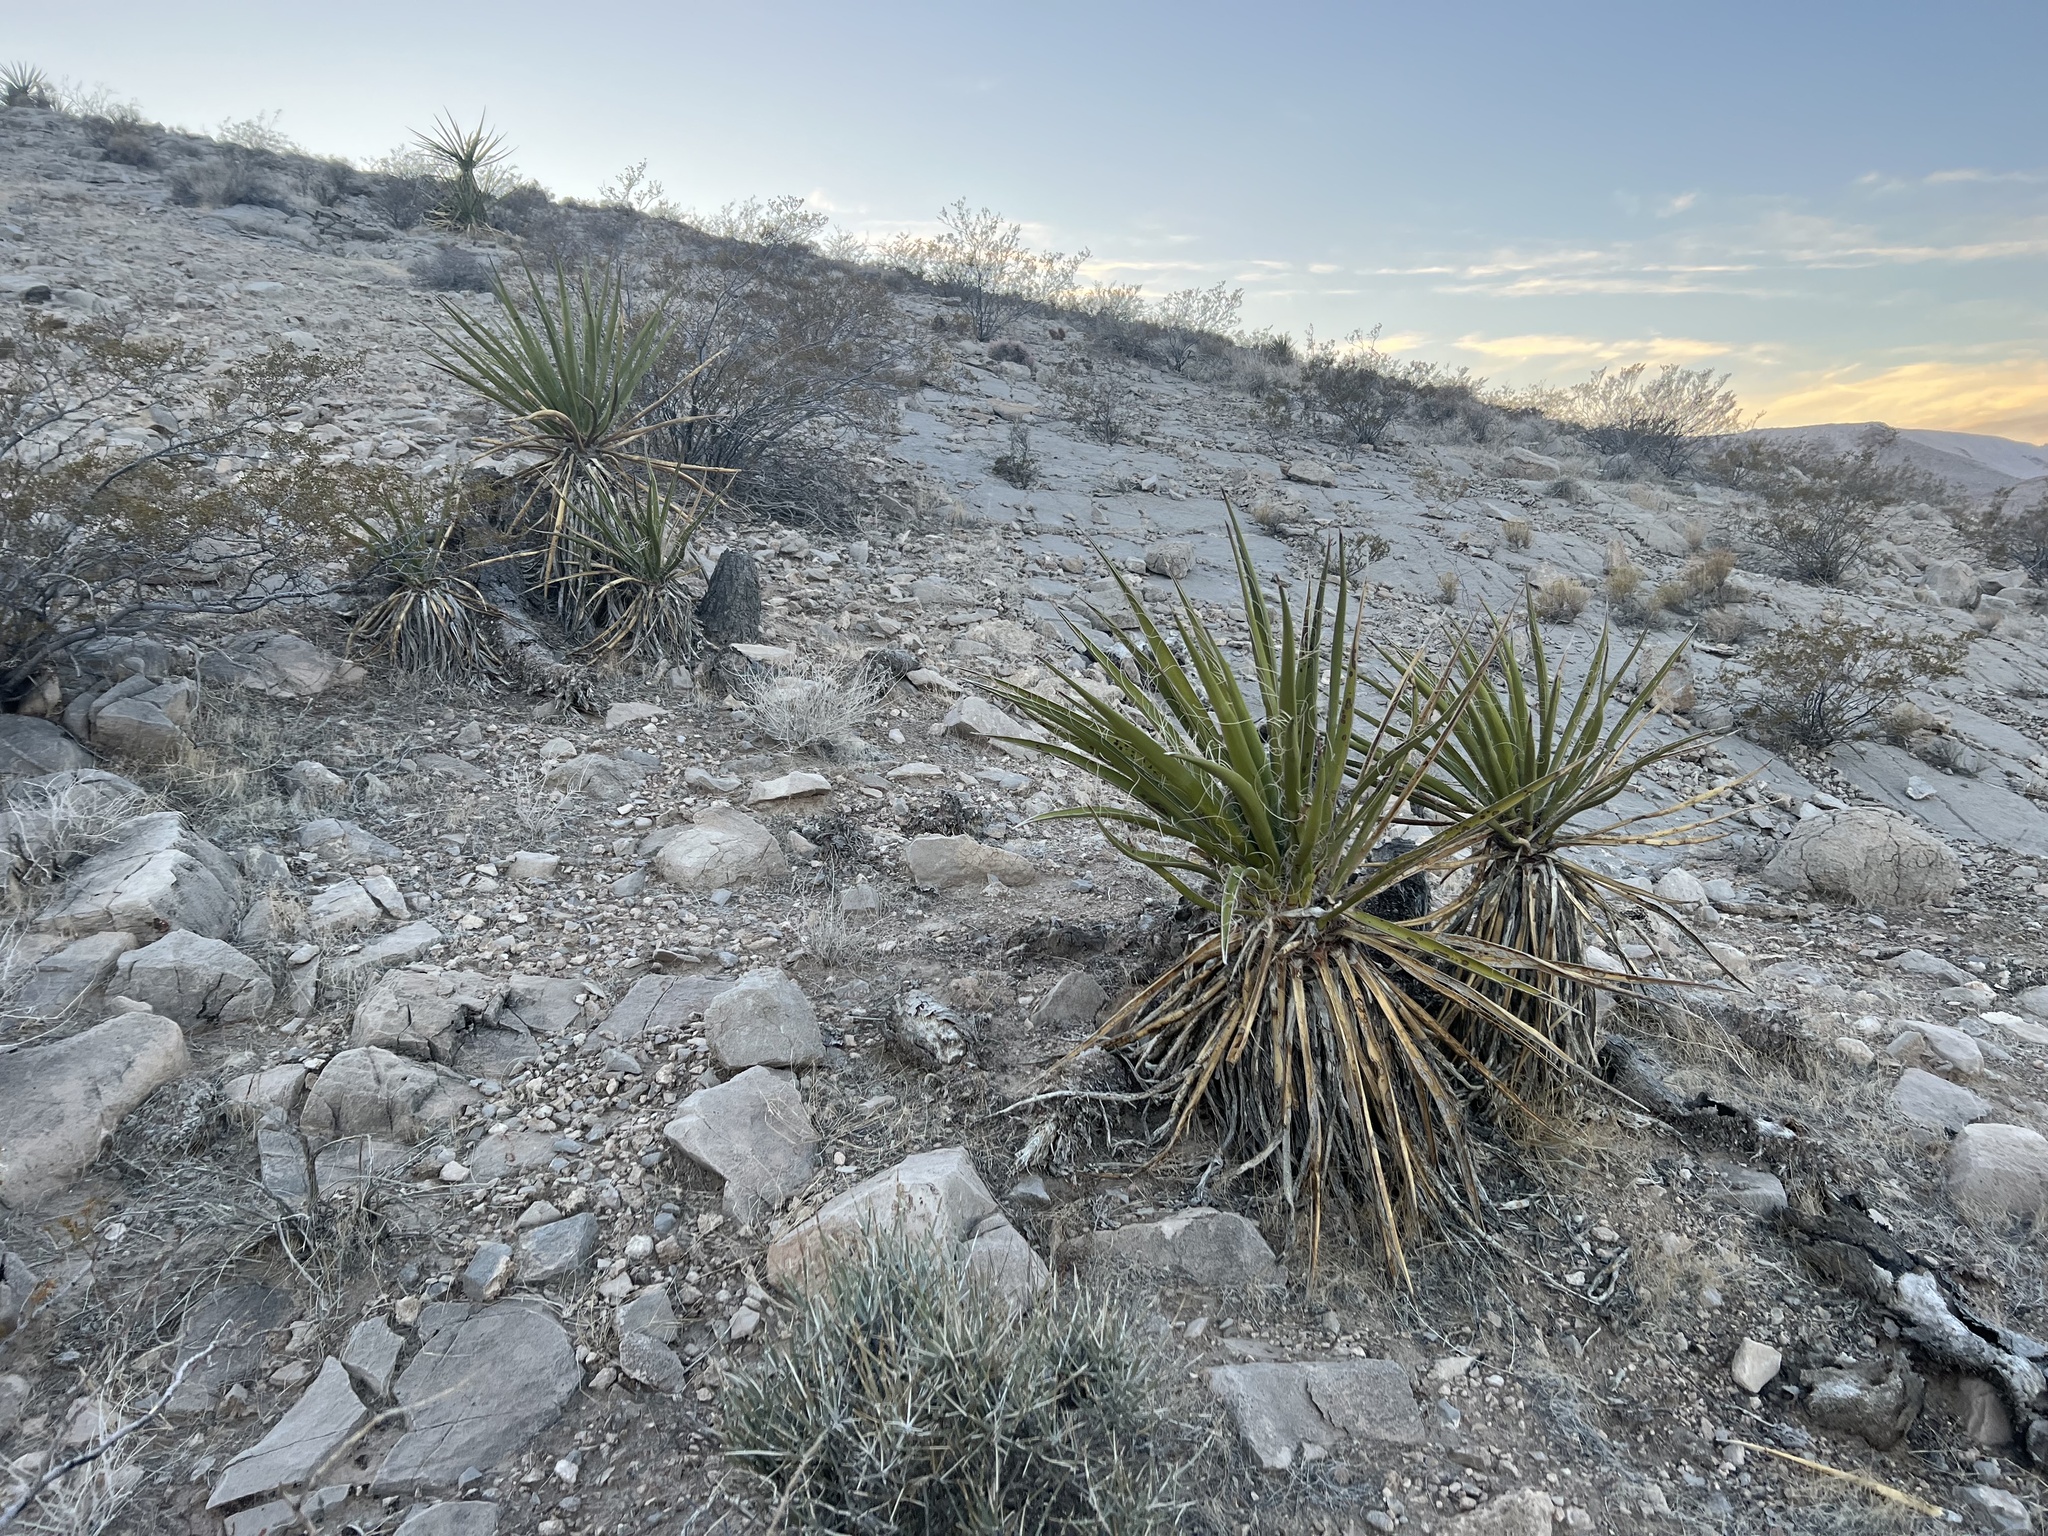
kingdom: Plantae
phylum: Tracheophyta
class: Liliopsida
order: Asparagales
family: Asparagaceae
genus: Yucca
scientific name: Yucca schidigera
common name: Mojave yucca
